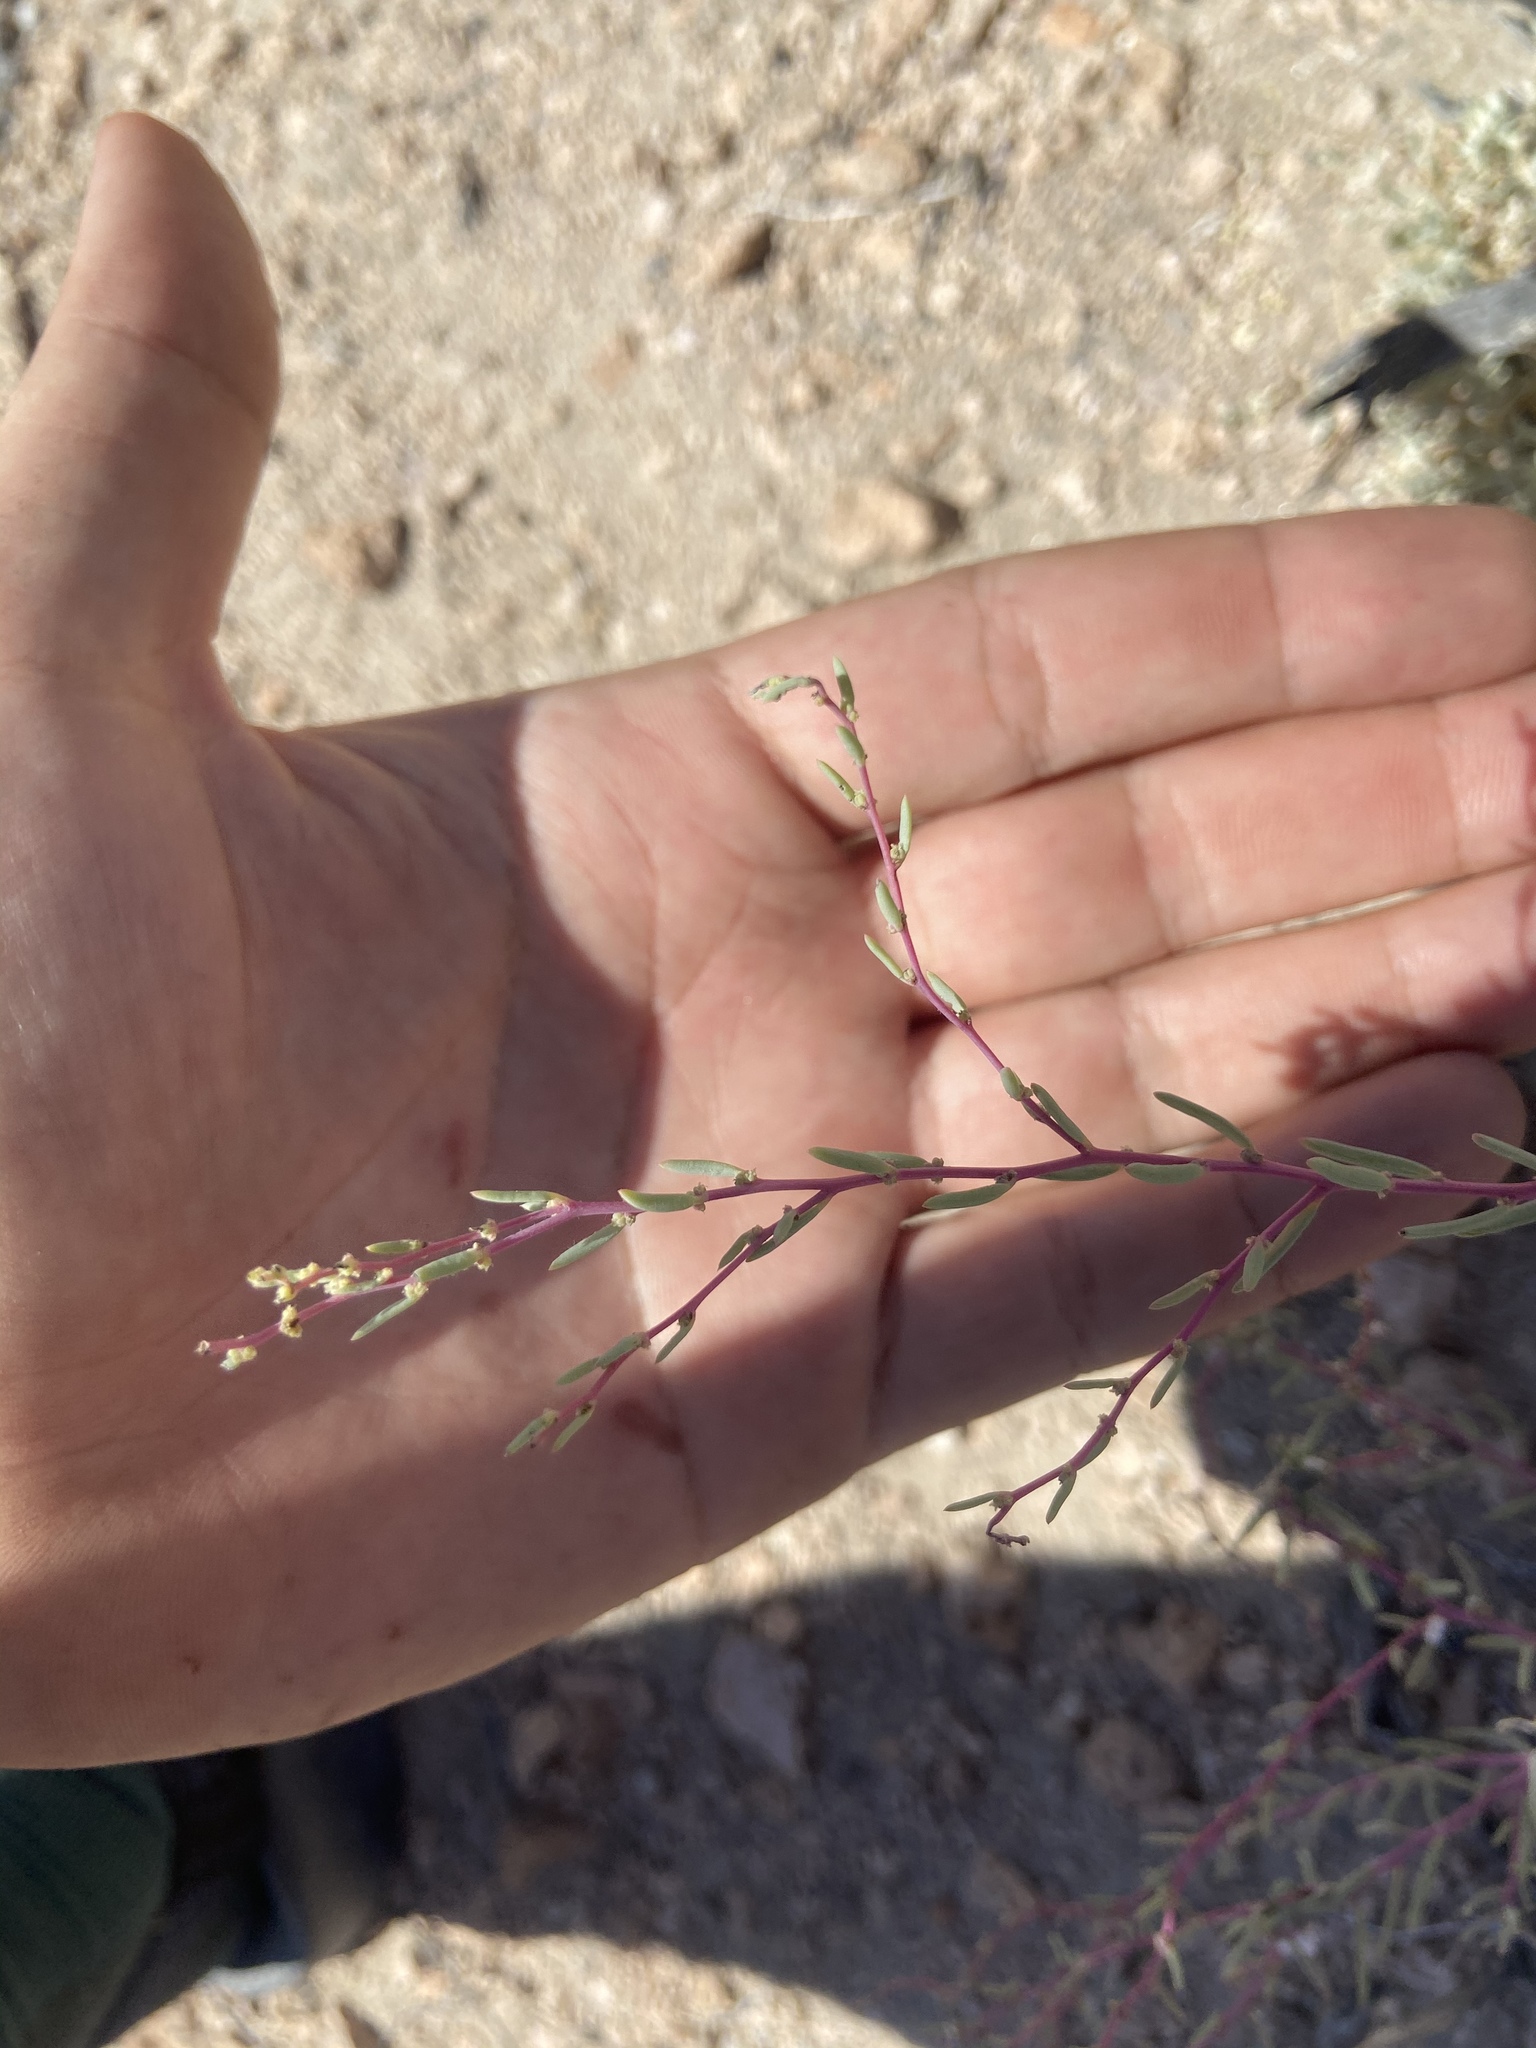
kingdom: Plantae
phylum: Tracheophyta
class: Magnoliopsida
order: Caryophyllales
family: Amaranthaceae
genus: Suaeda
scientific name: Suaeda nigra
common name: Bush seepweed
